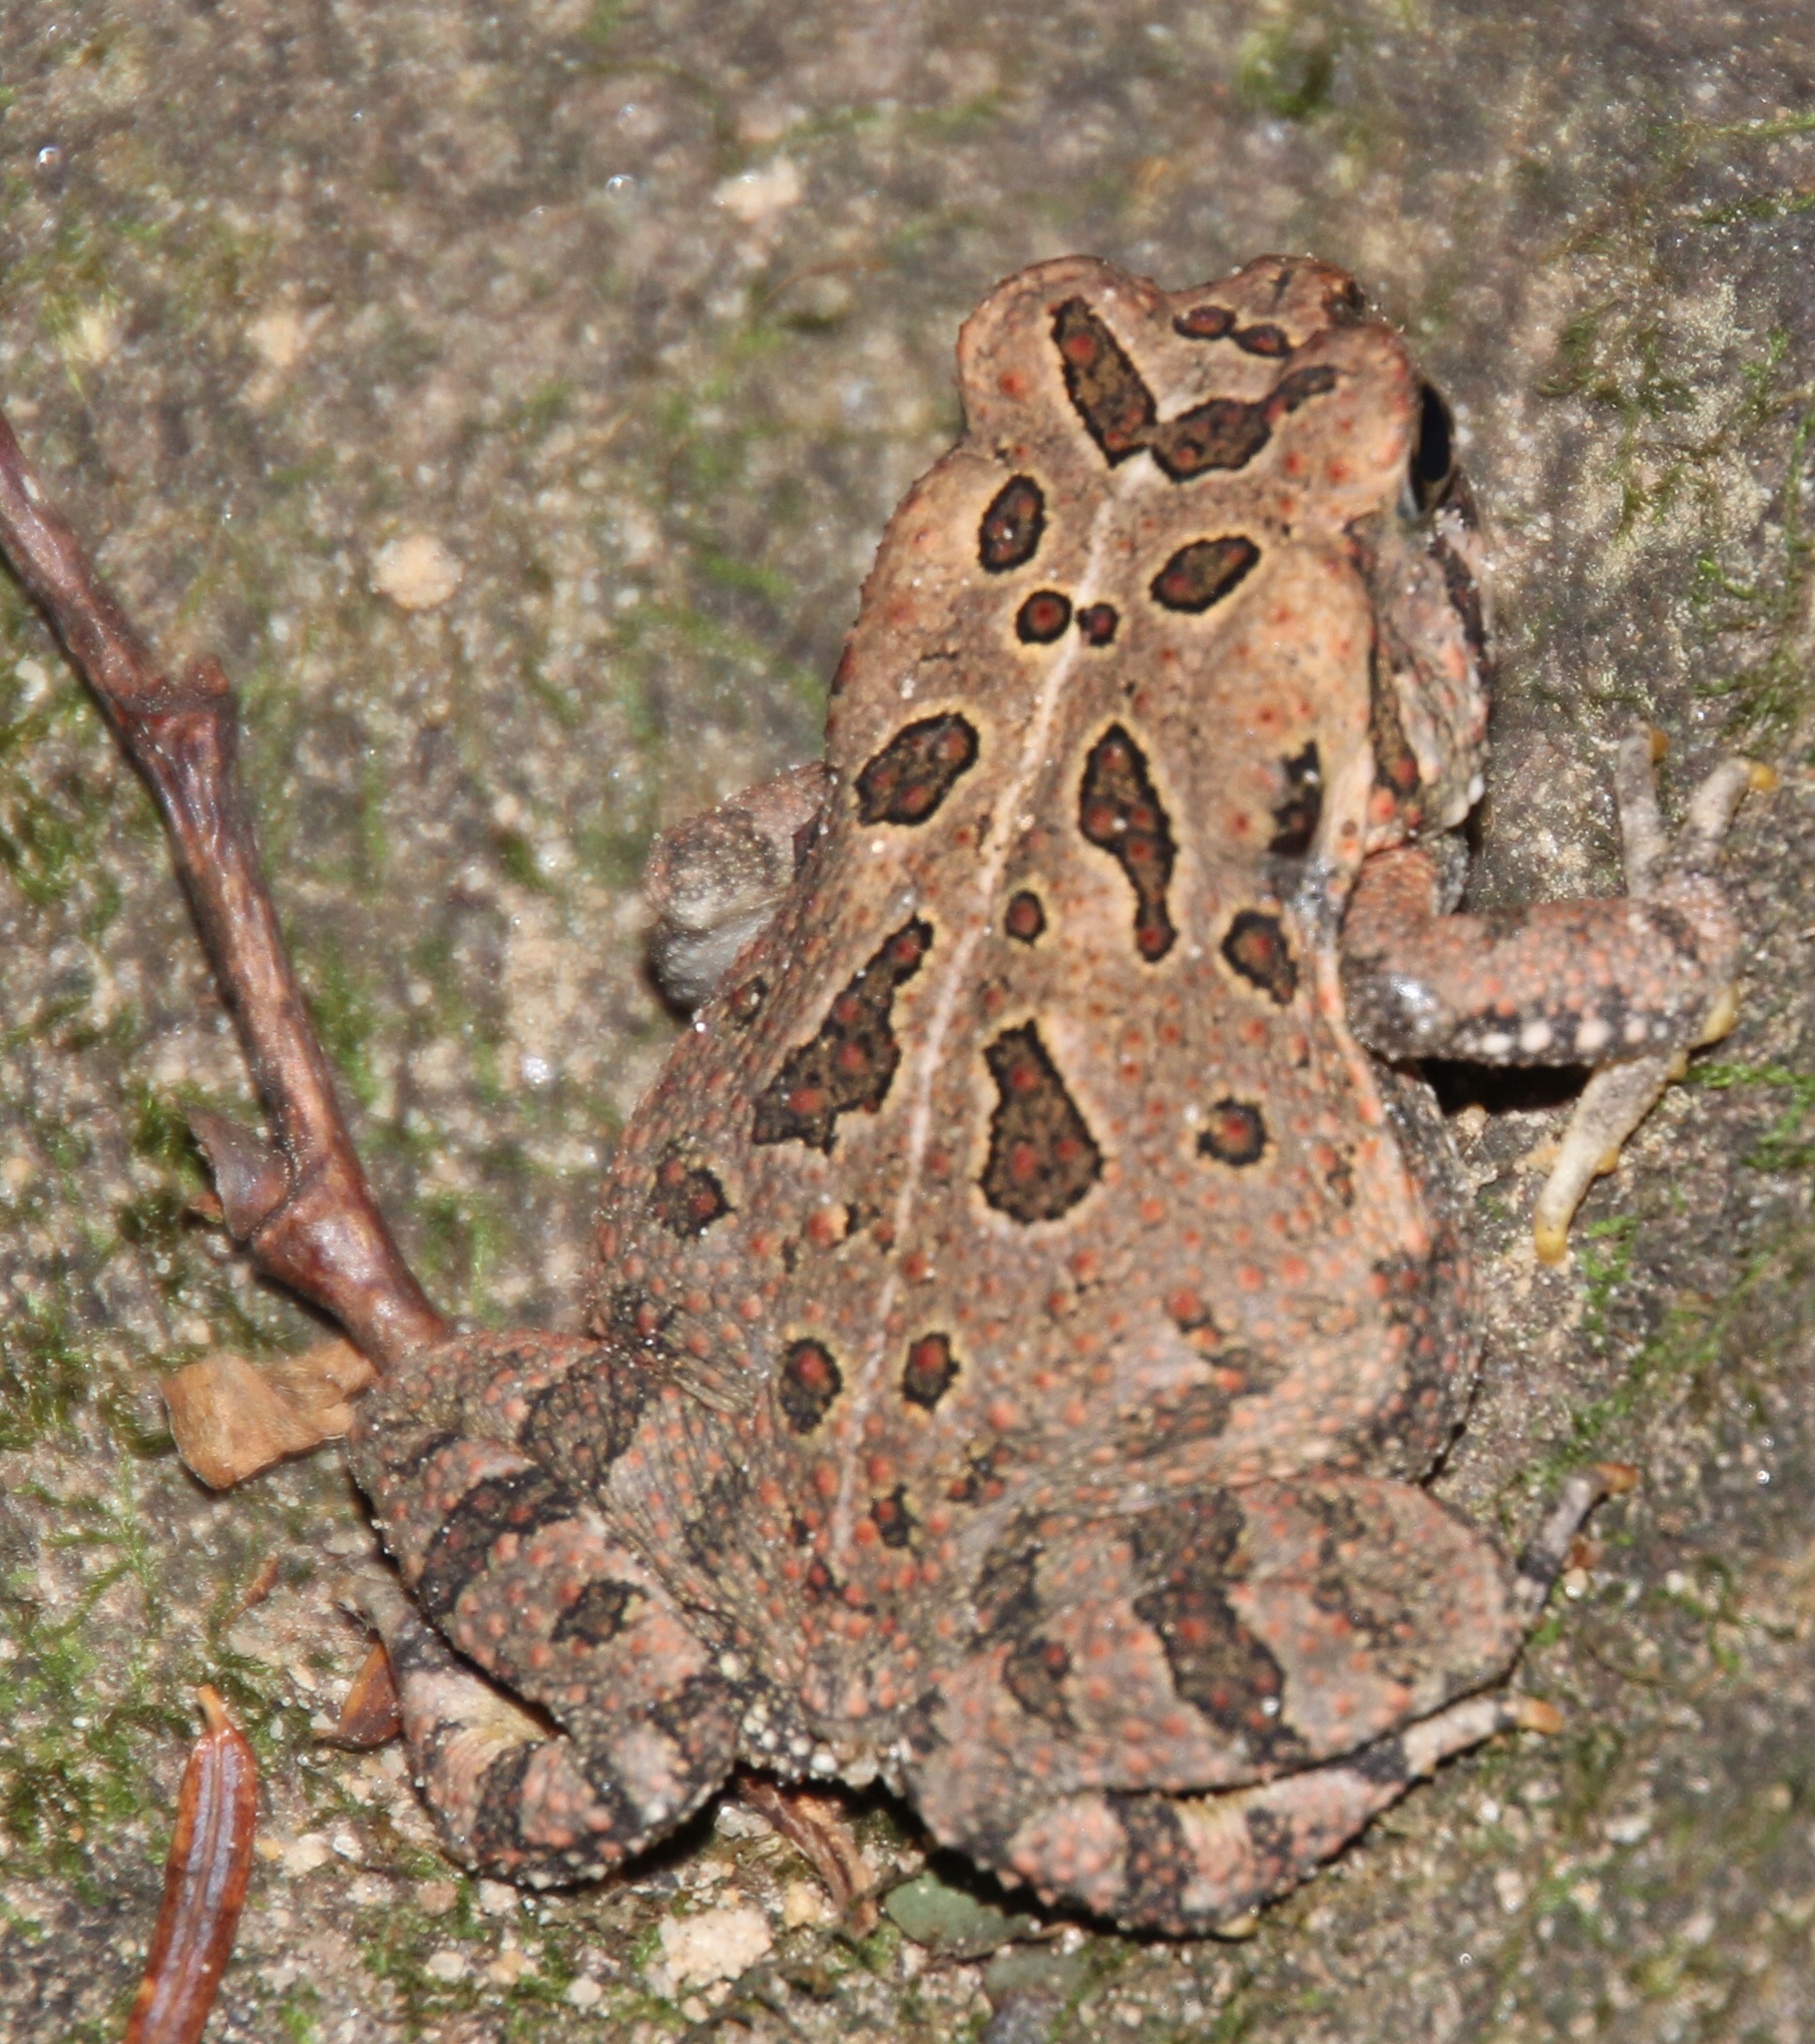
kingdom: Animalia
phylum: Chordata
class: Amphibia
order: Anura
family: Bufonidae
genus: Anaxyrus
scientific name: Anaxyrus fowleri
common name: Fowler's toad
